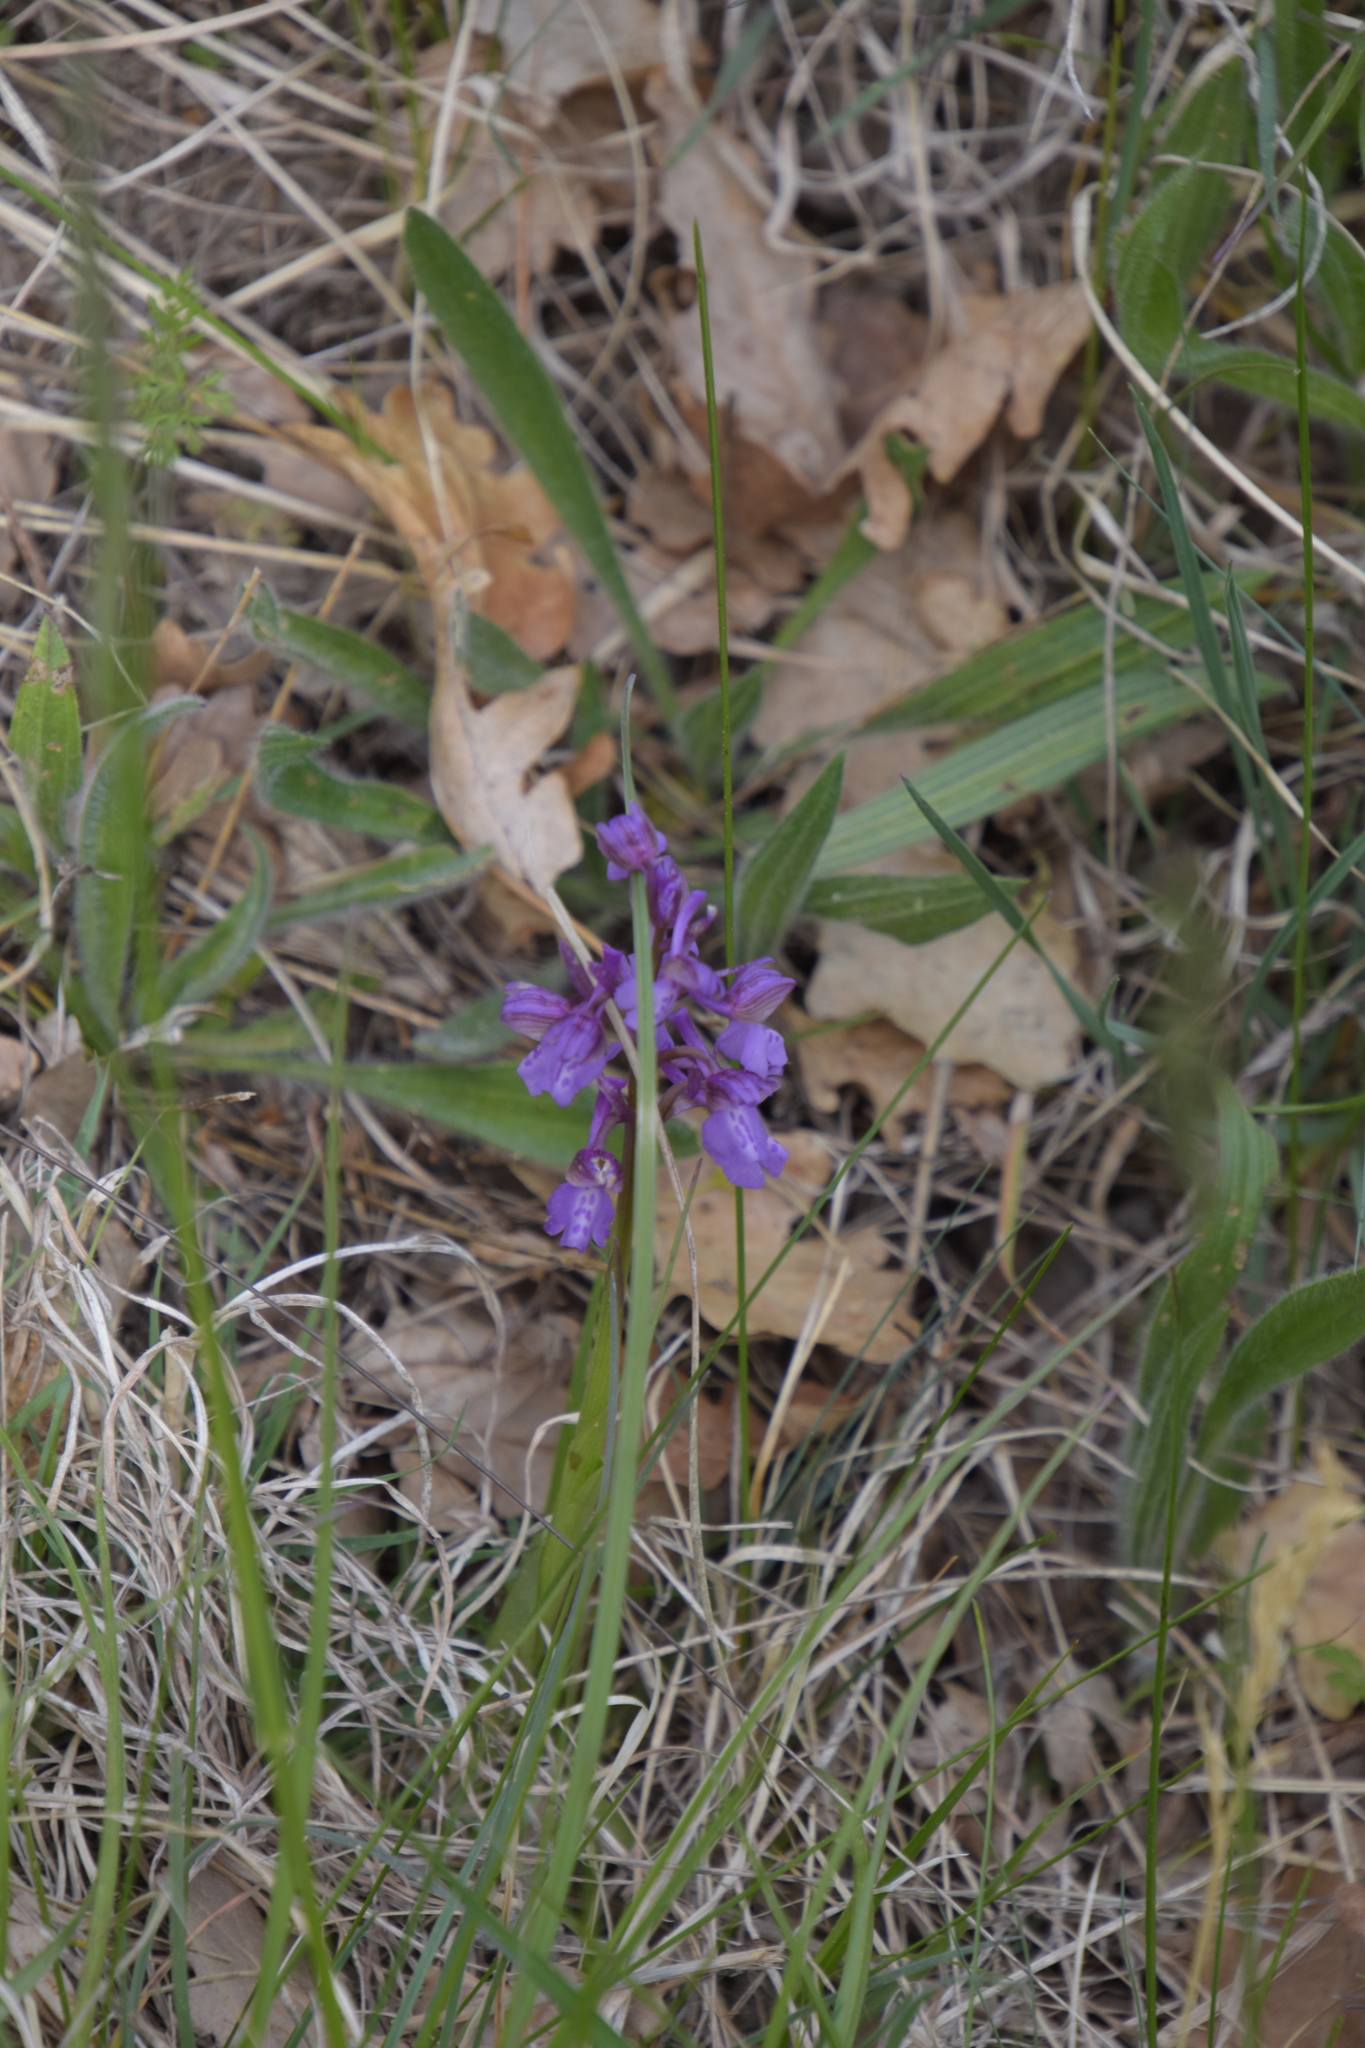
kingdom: Plantae
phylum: Tracheophyta
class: Liliopsida
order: Asparagales
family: Orchidaceae
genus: Anacamptis
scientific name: Anacamptis morio
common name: Green-winged orchid
